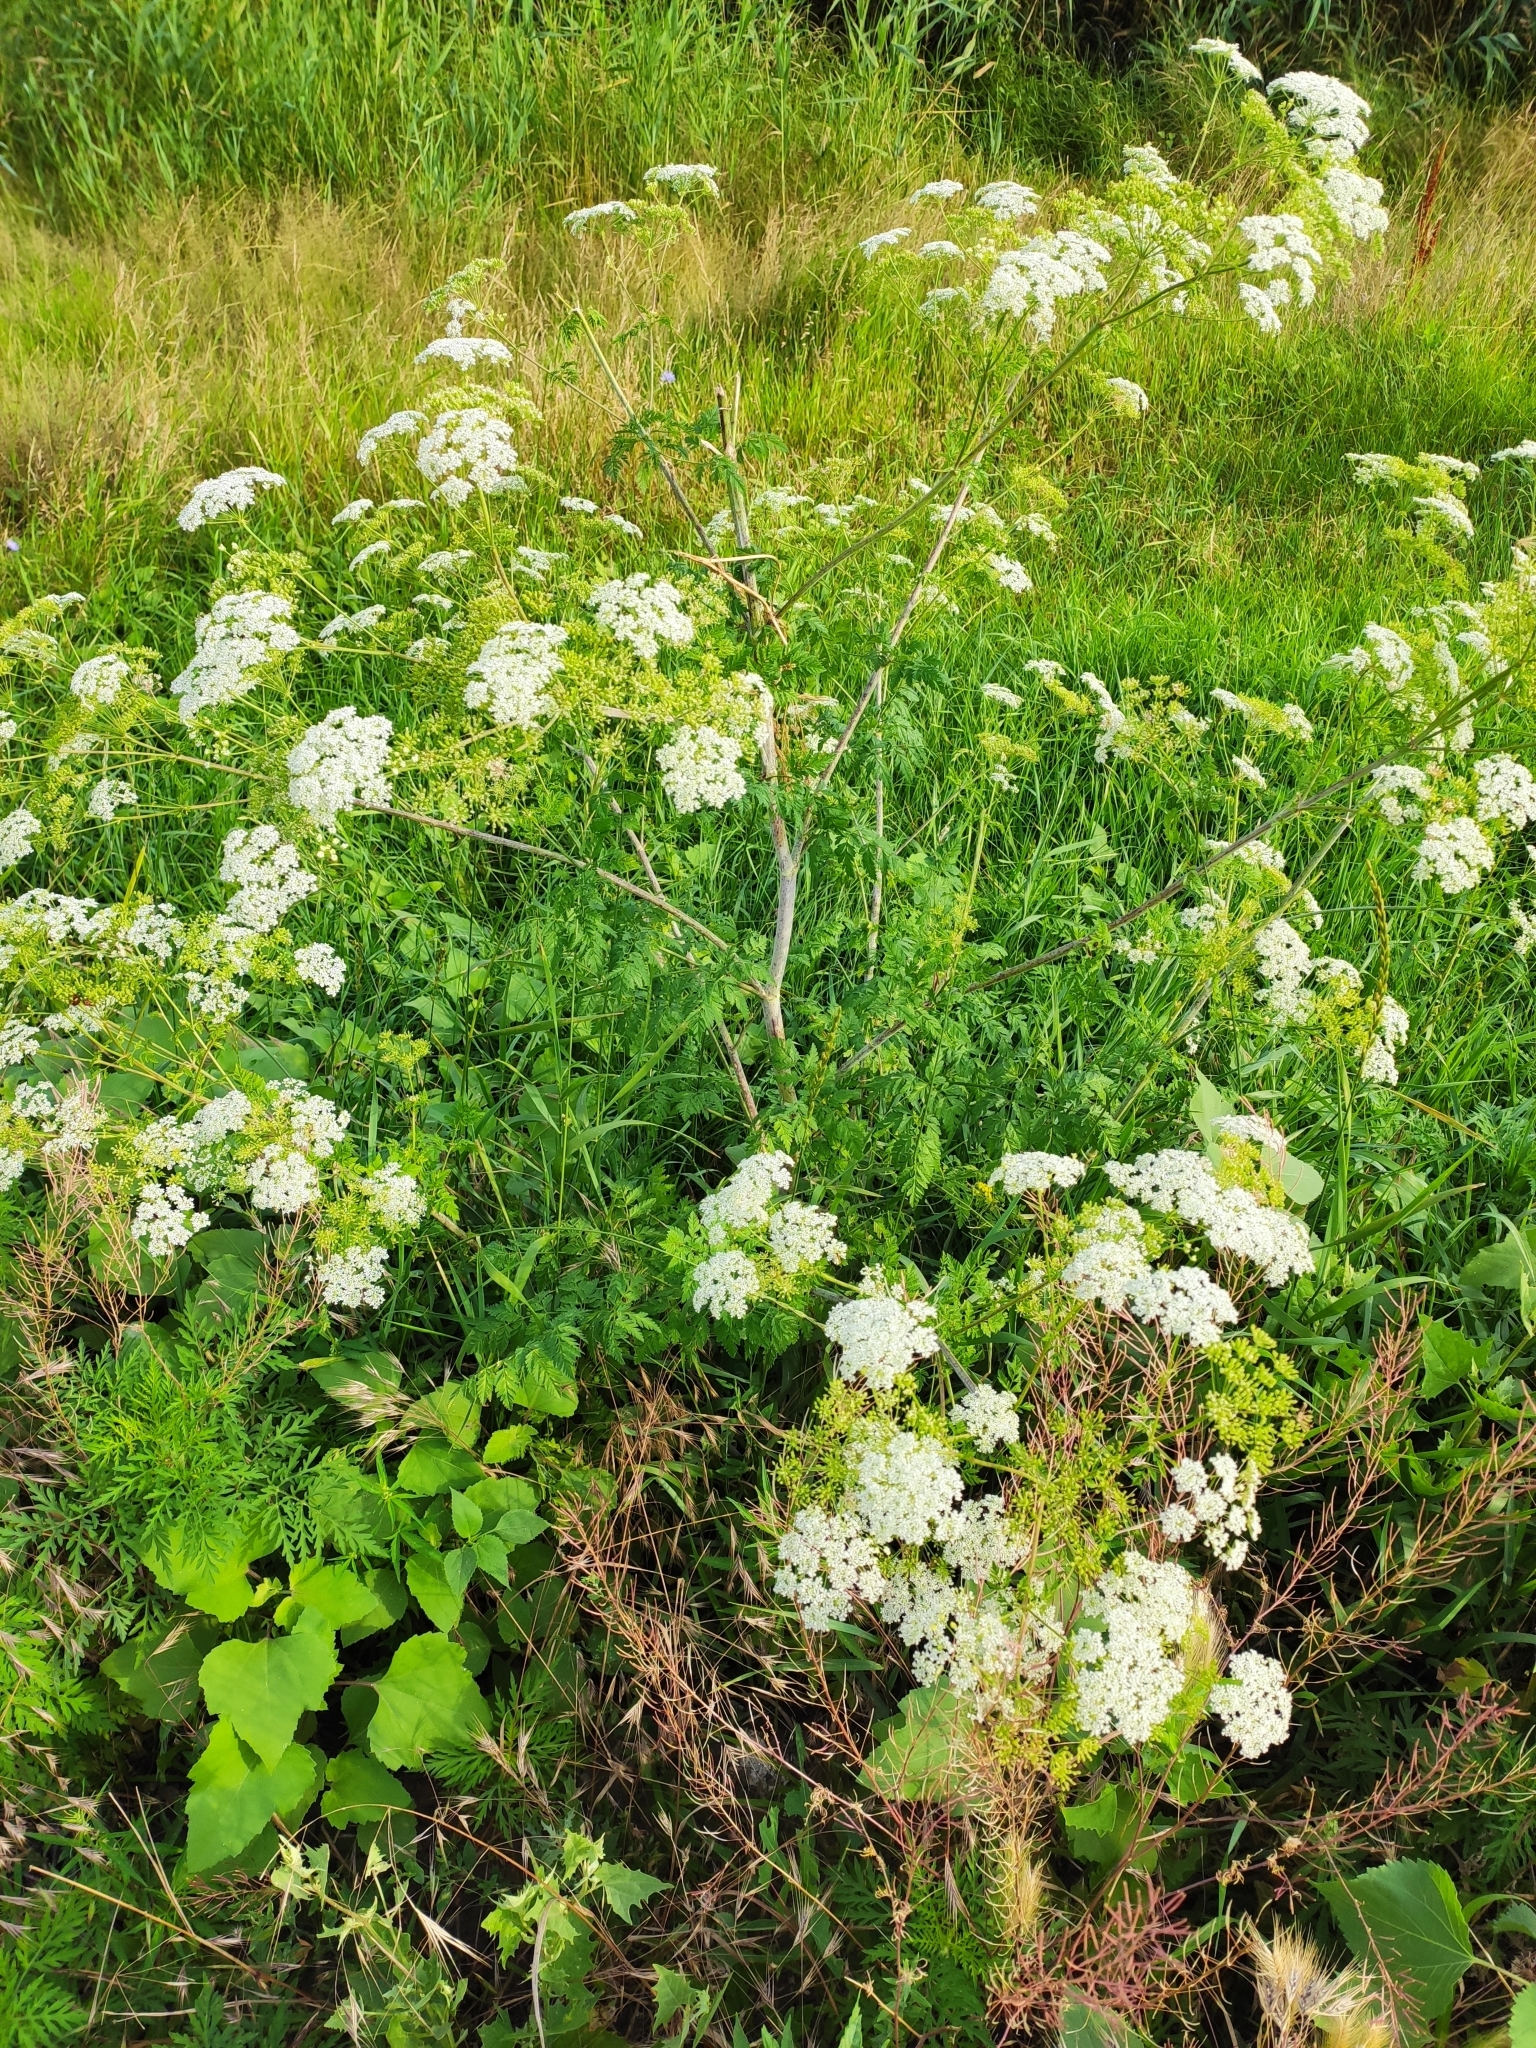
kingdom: Plantae
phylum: Tracheophyta
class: Magnoliopsida
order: Apiales
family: Apiaceae
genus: Conium
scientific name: Conium maculatum
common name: Hemlock
